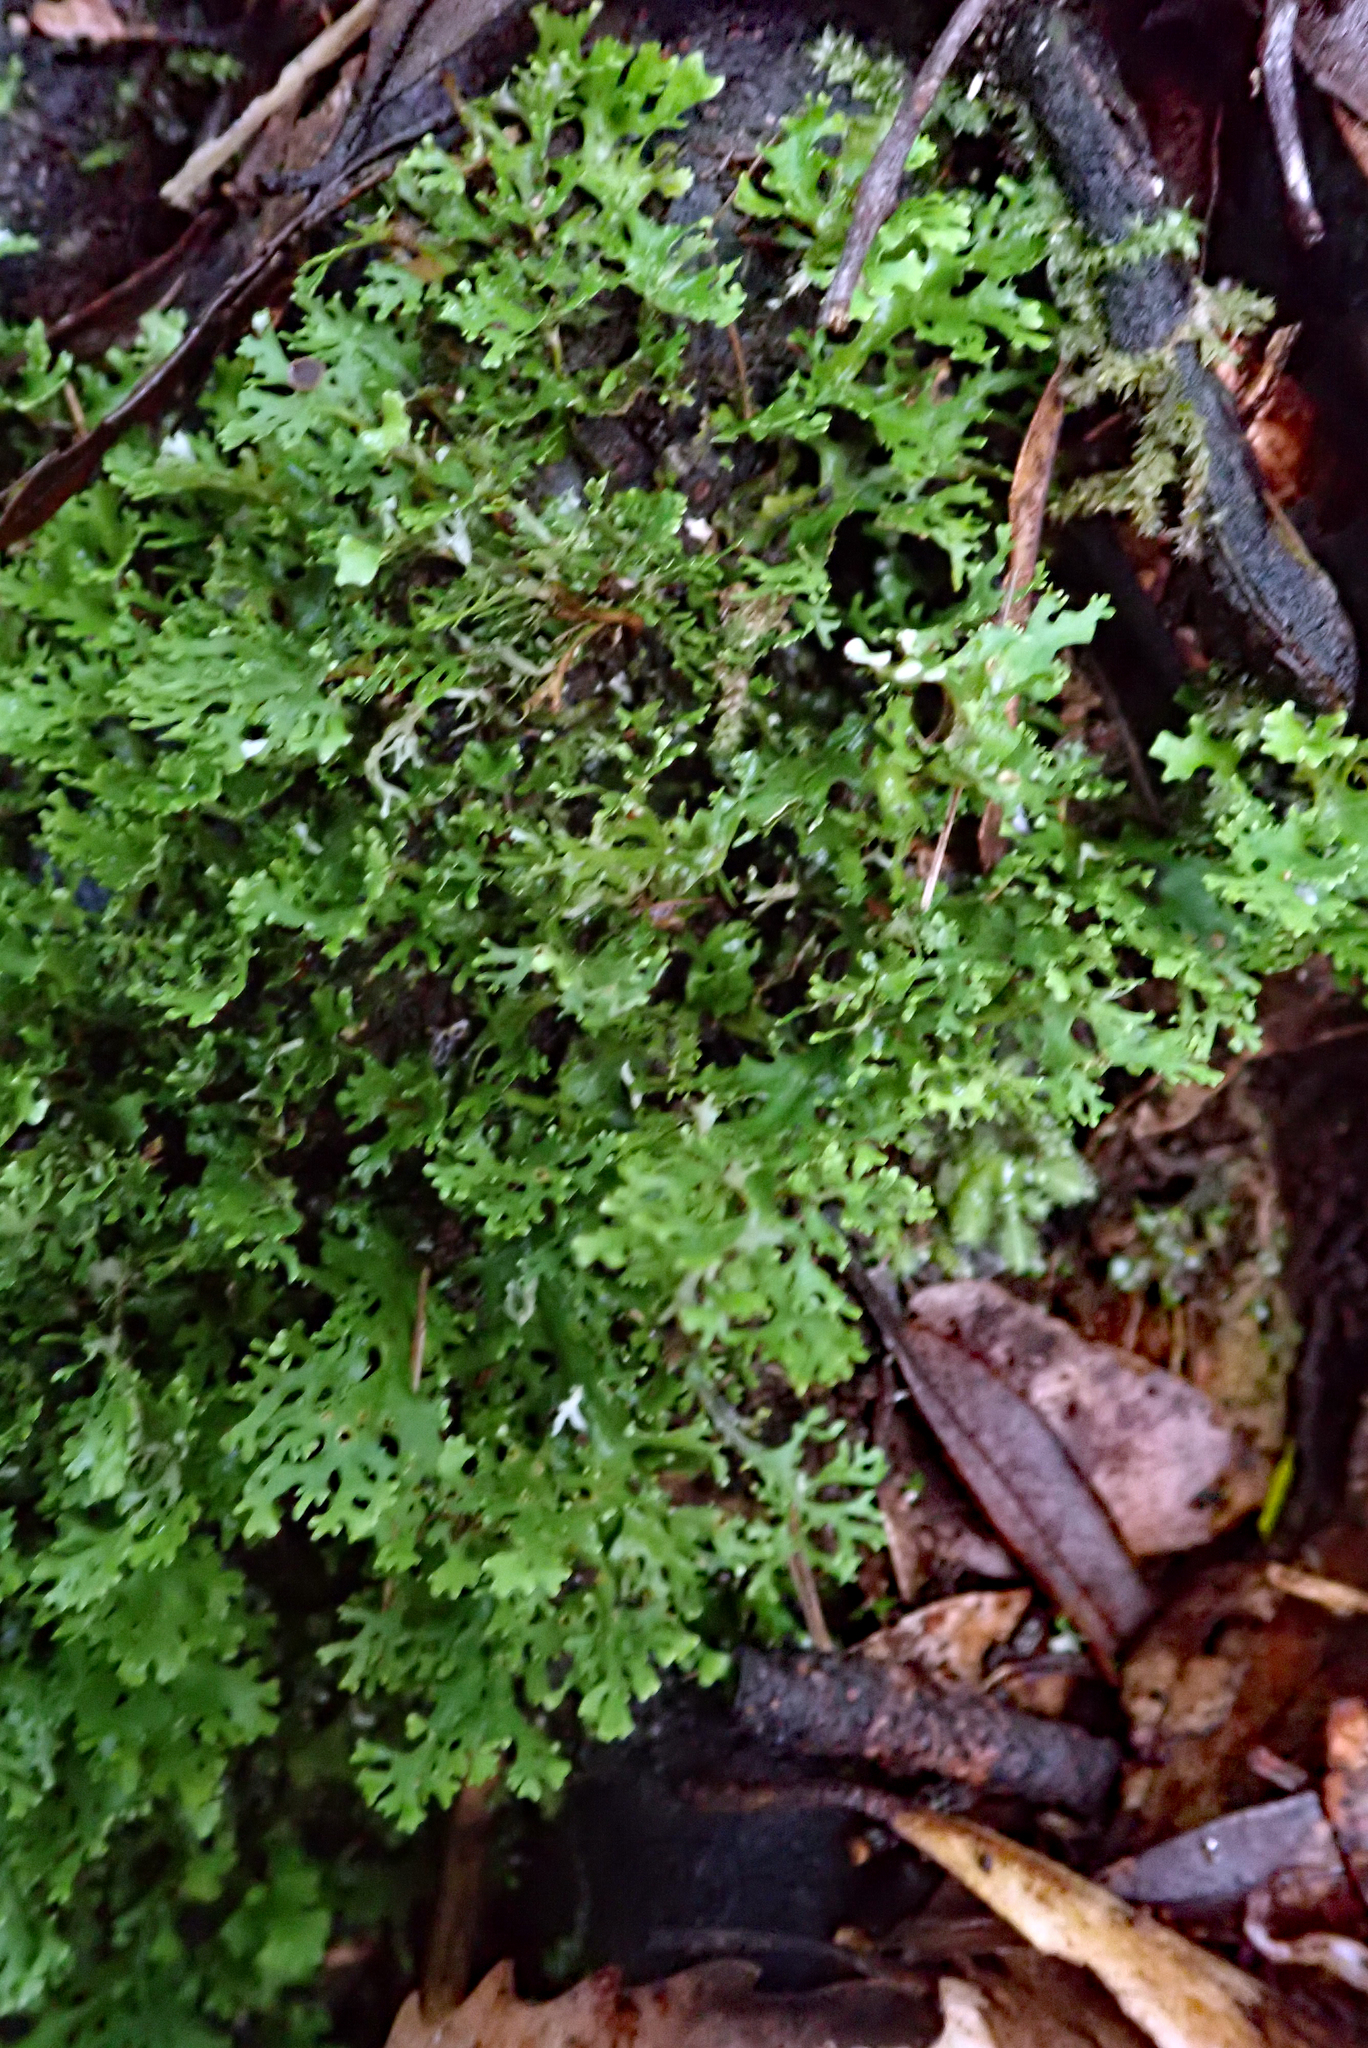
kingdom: Fungi
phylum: Ascomycota
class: Lecanoromycetes
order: Peltigerales
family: Lobariaceae
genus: Sticta
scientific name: Sticta
